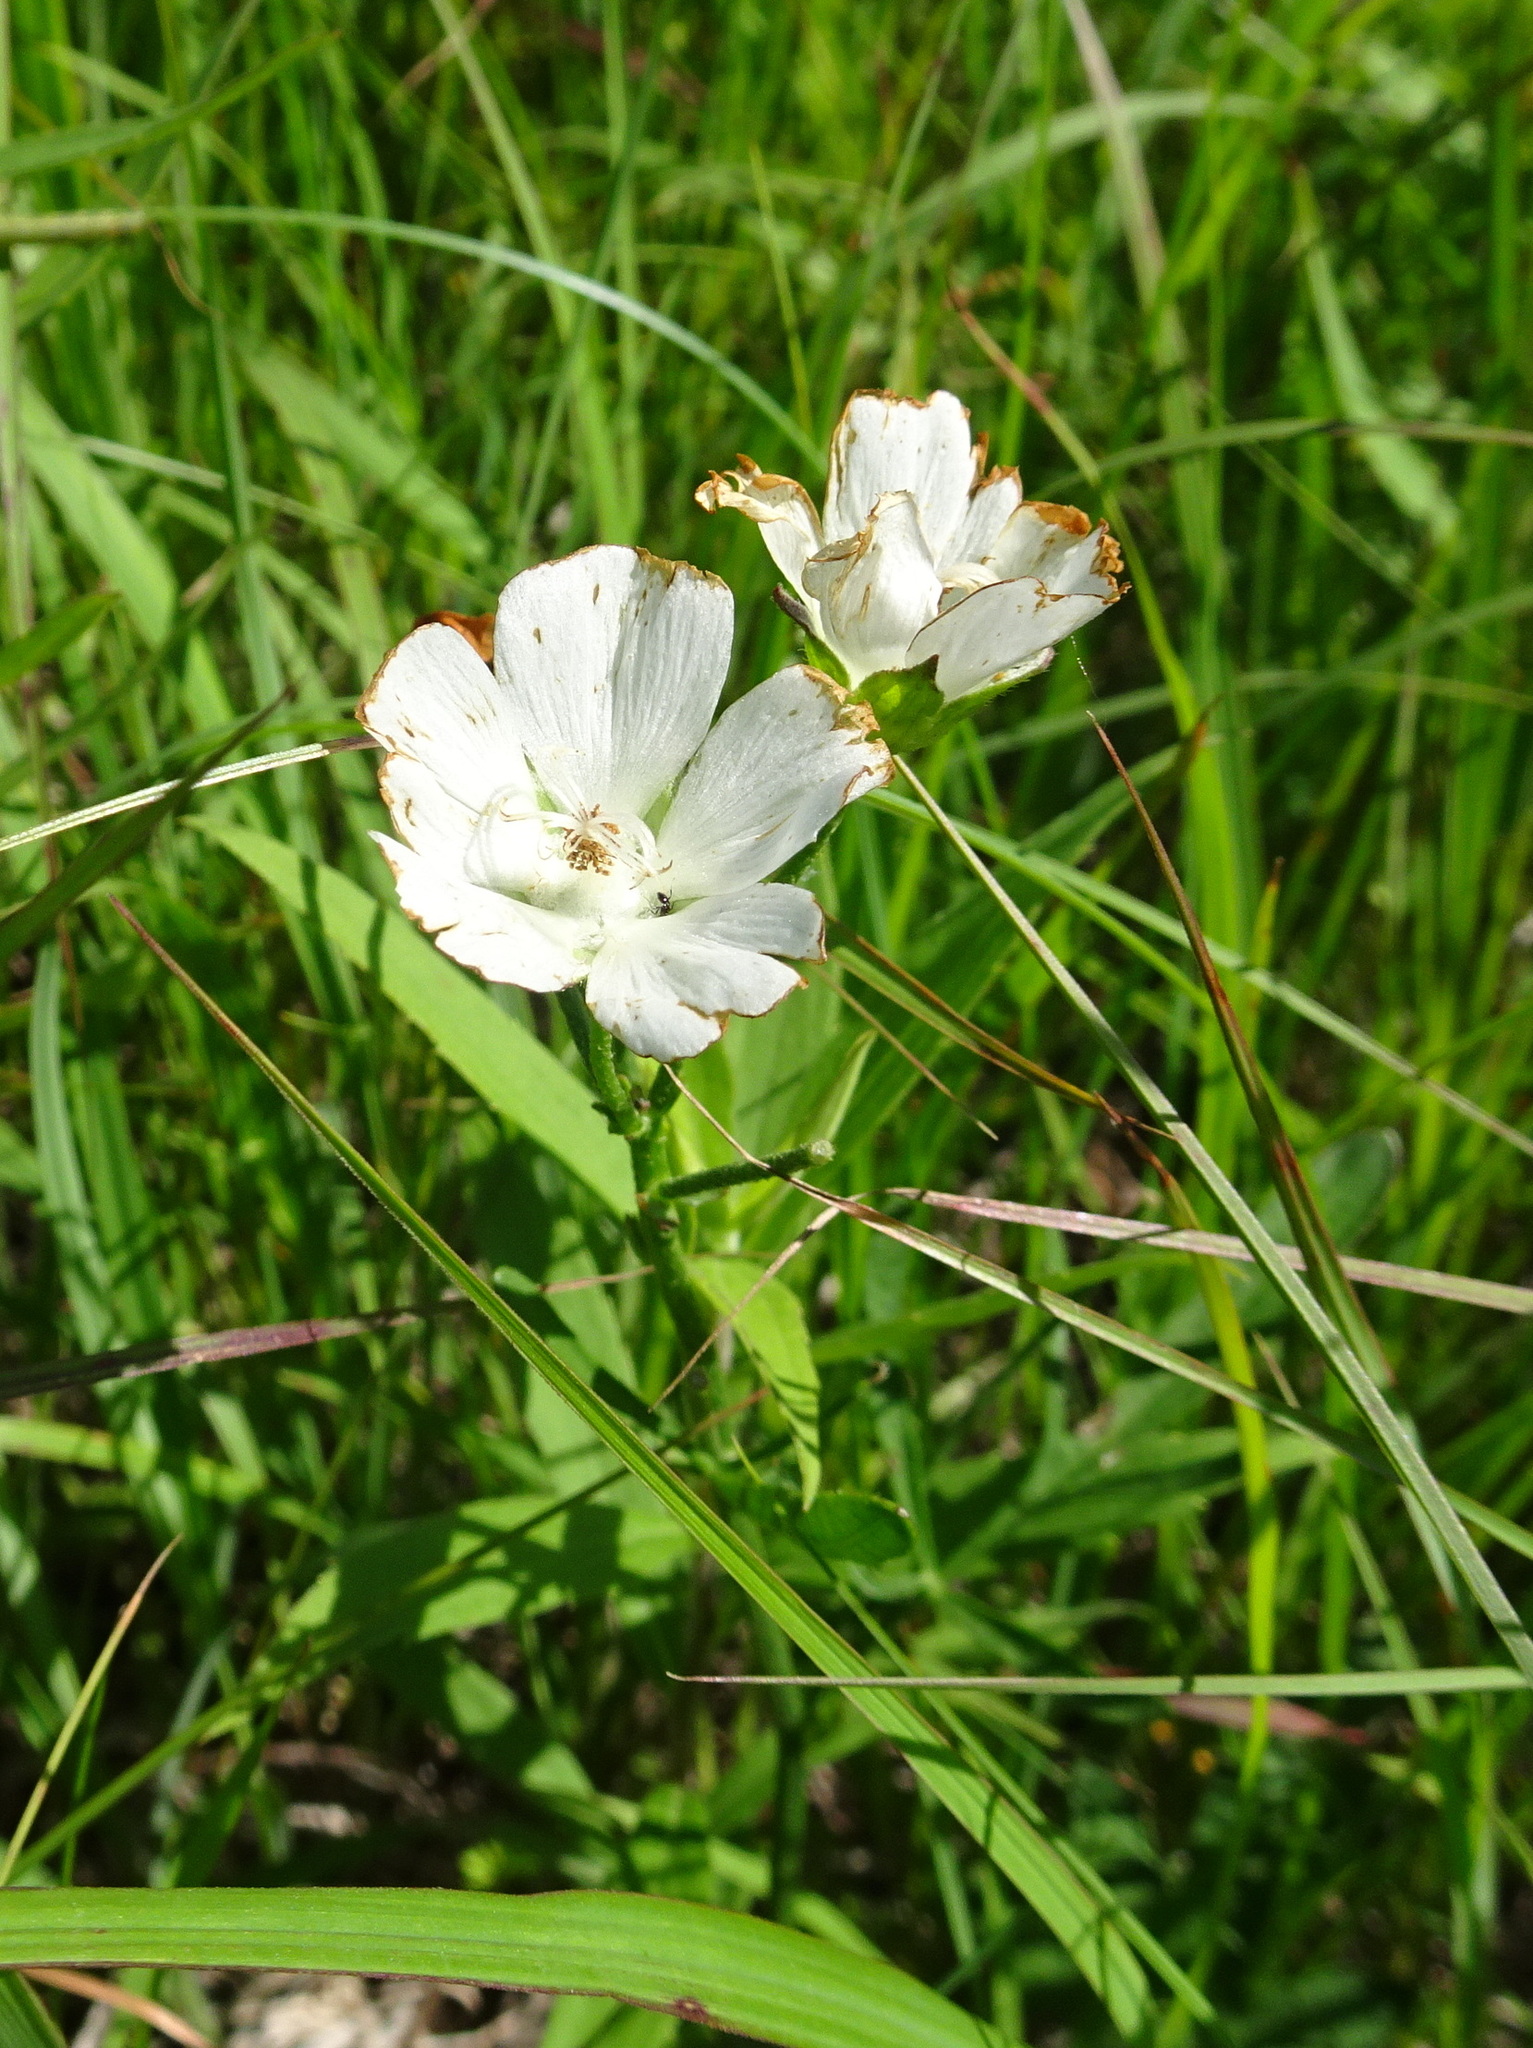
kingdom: Plantae
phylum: Tracheophyta
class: Magnoliopsida
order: Malvales
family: Malvaceae
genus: Callirhoe
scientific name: Callirhoe alcaeoides
